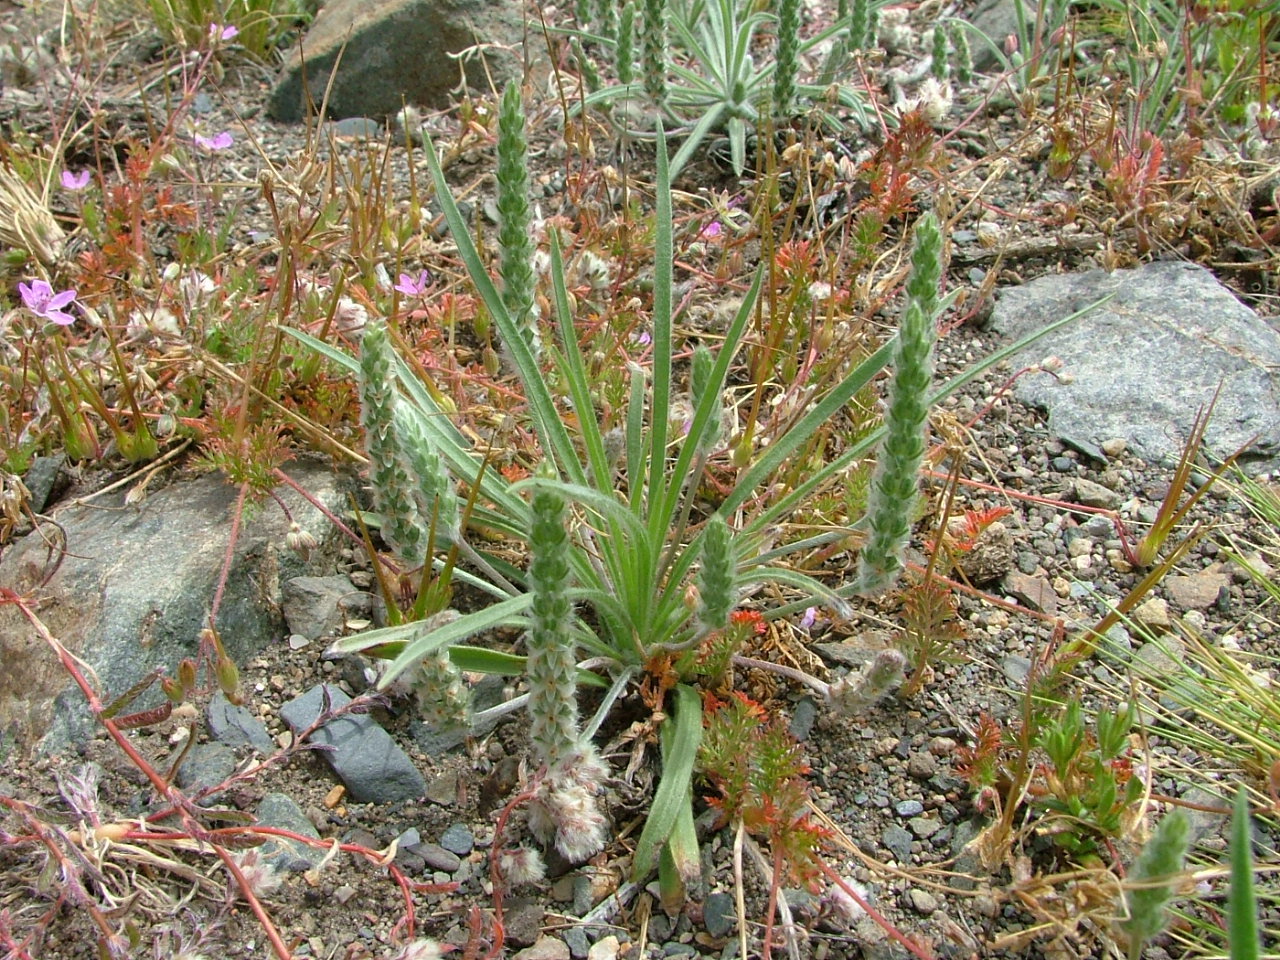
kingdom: Plantae
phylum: Tracheophyta
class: Magnoliopsida
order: Lamiales
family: Plantaginaceae
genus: Plantago
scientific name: Plantago patagonica
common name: Patagonia indian-wheat
